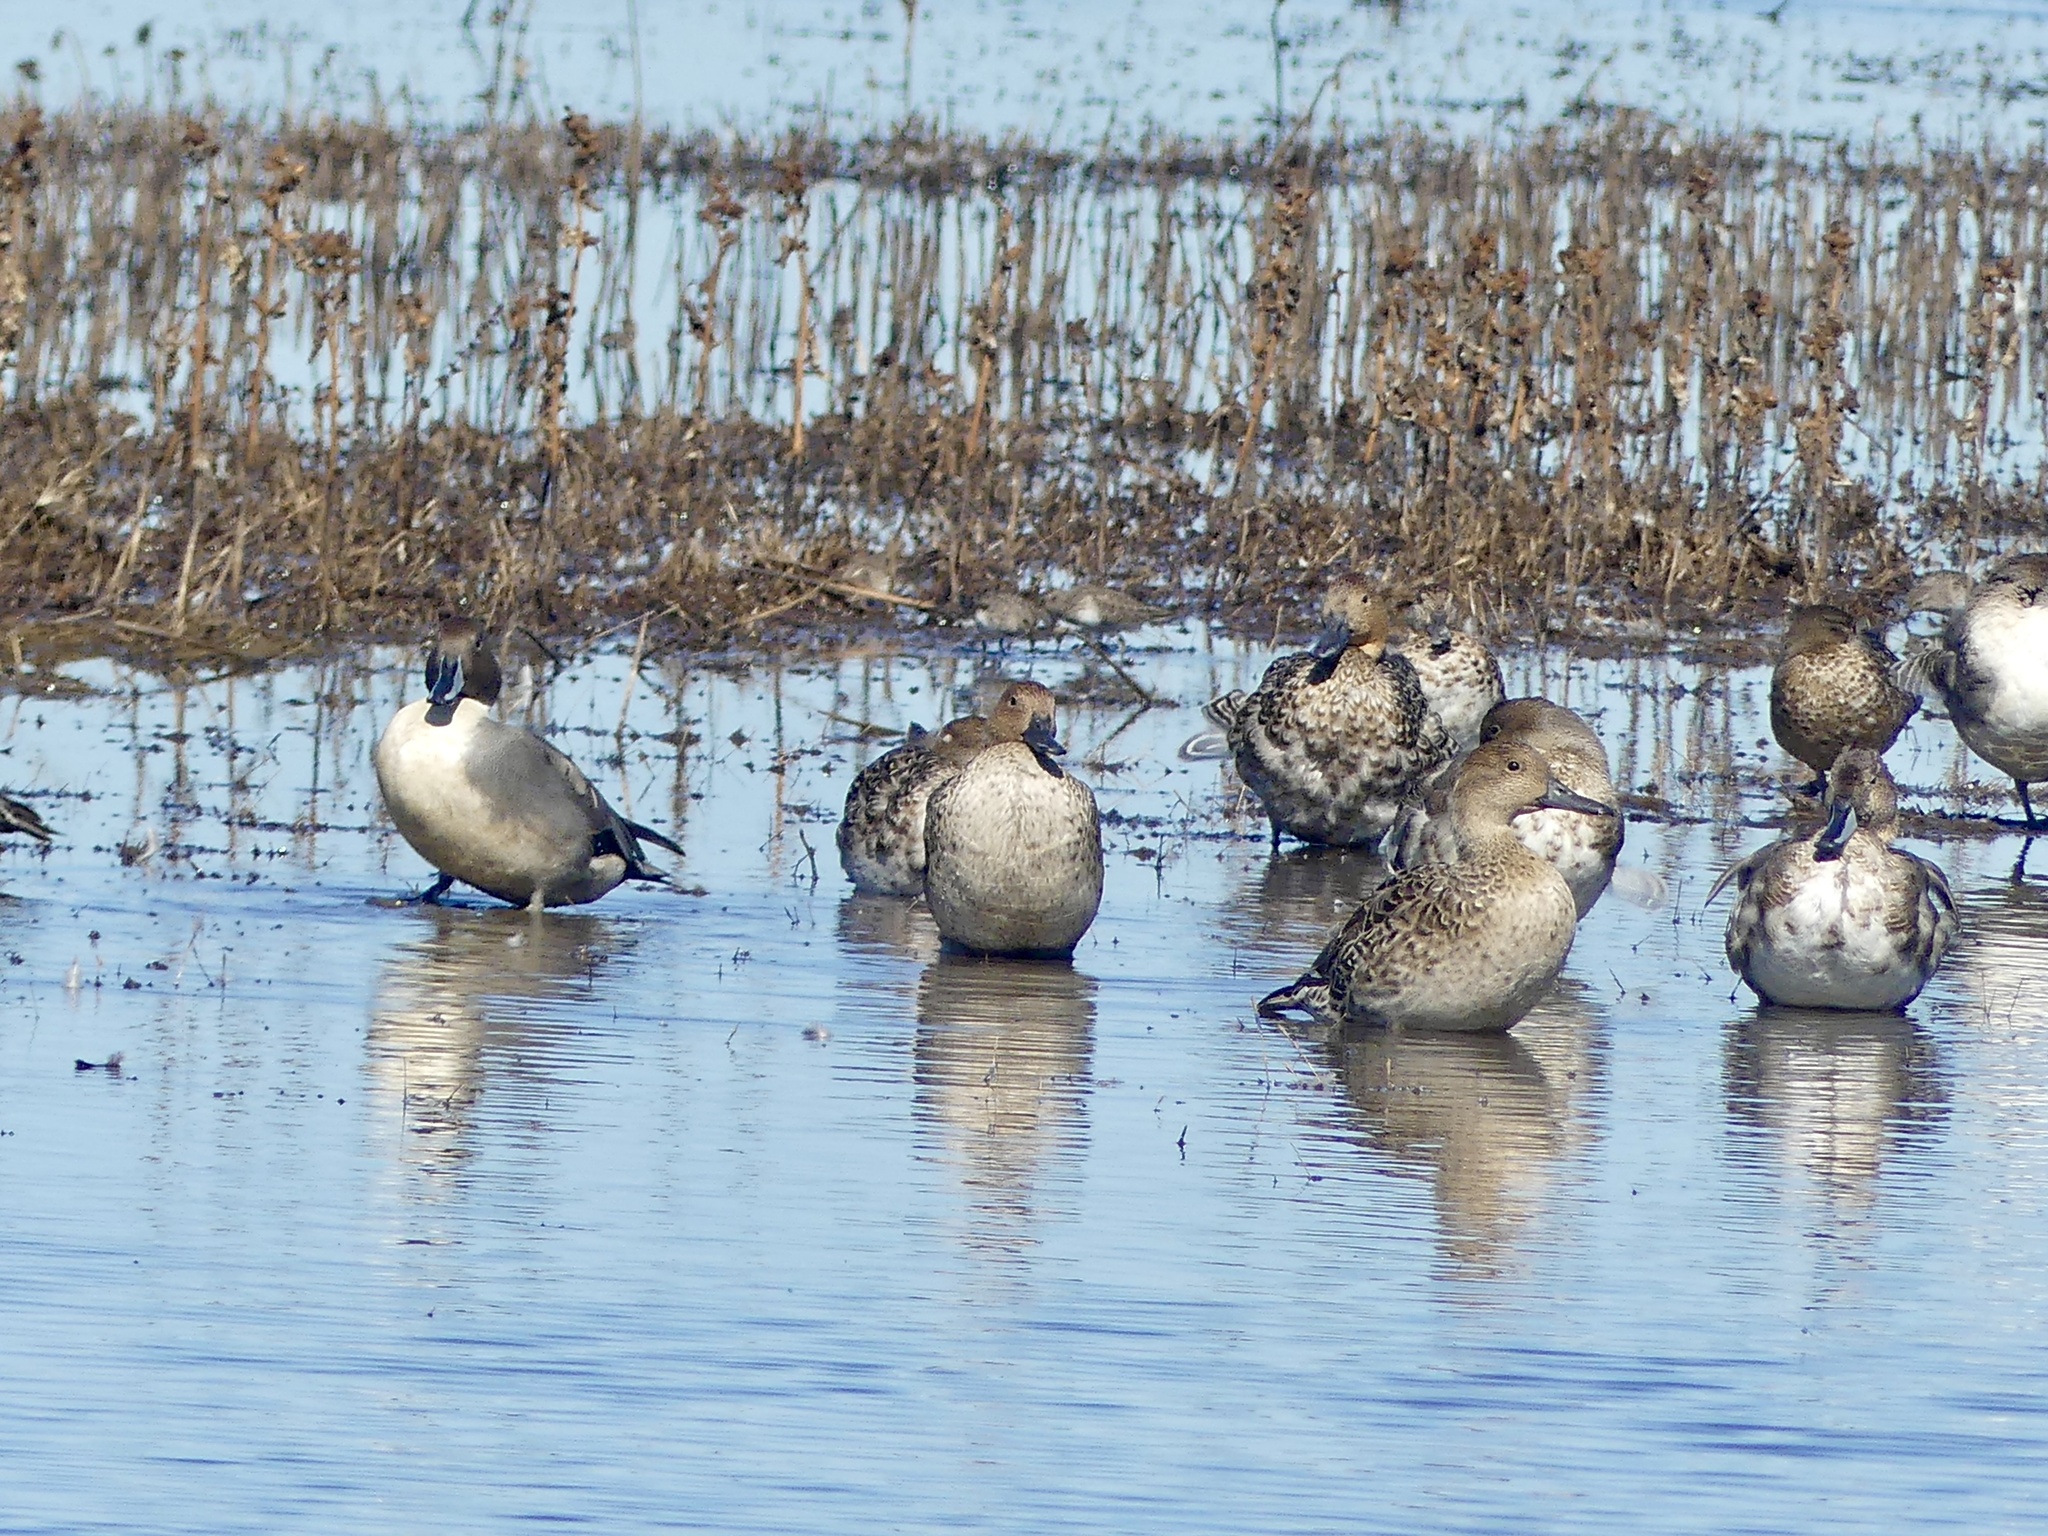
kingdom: Animalia
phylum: Chordata
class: Aves
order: Anseriformes
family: Anatidae
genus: Anas
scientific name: Anas acuta
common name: Northern pintail
